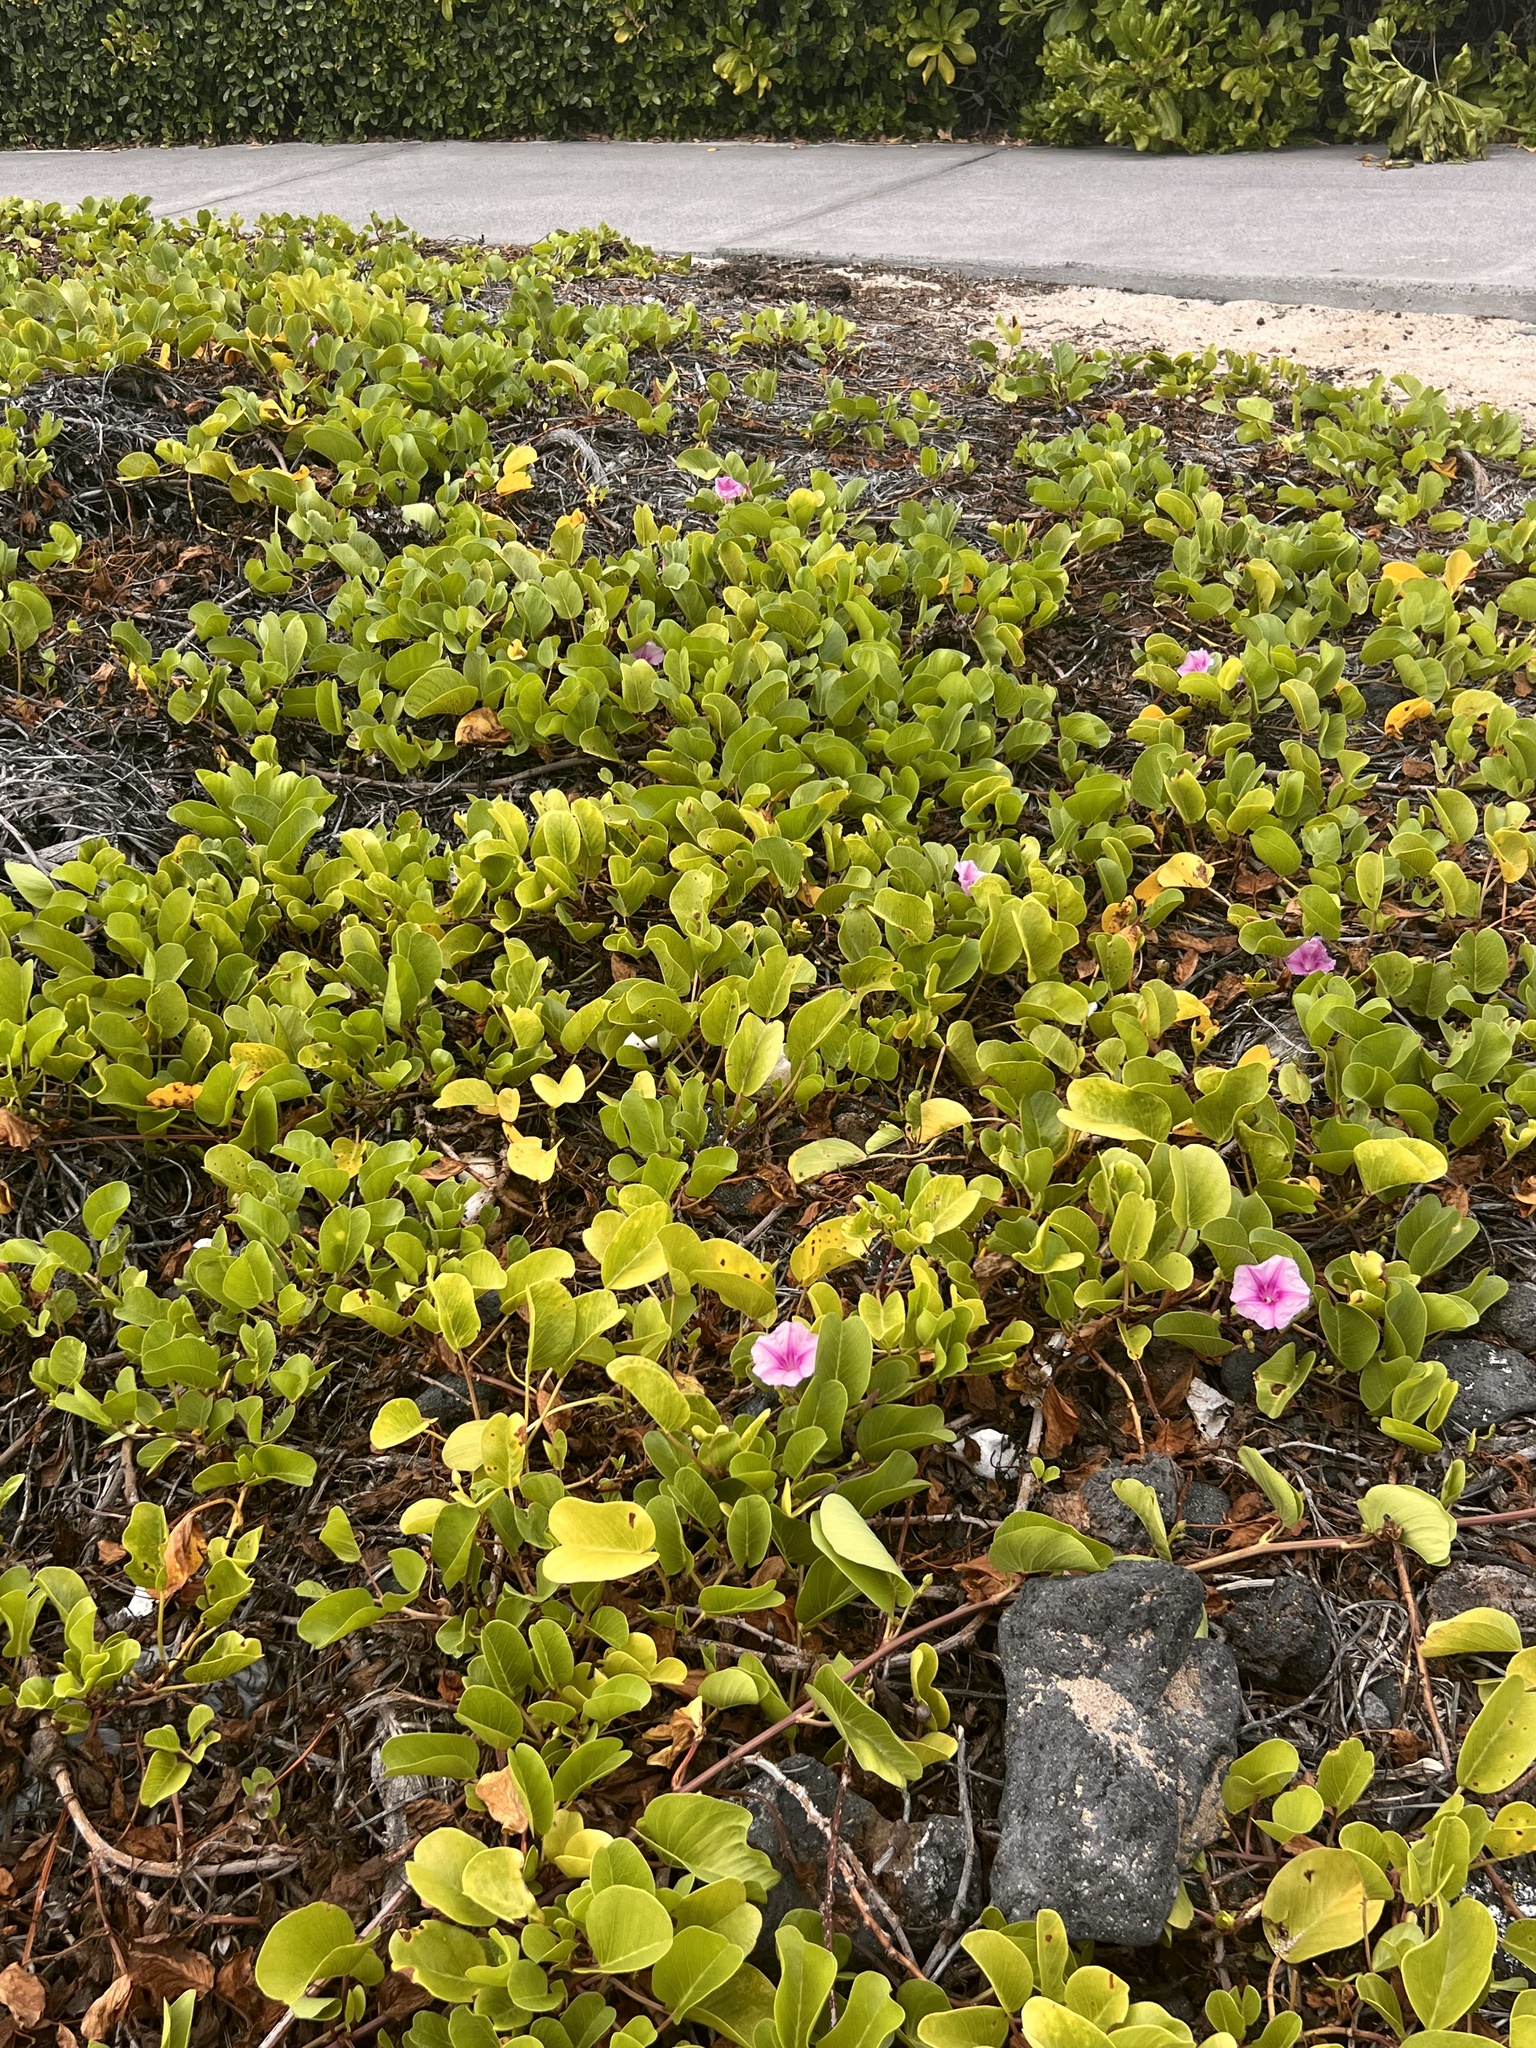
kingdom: Plantae
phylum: Tracheophyta
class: Magnoliopsida
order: Solanales
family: Convolvulaceae
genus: Ipomoea
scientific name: Ipomoea pes-caprae
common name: Beach morning glory
